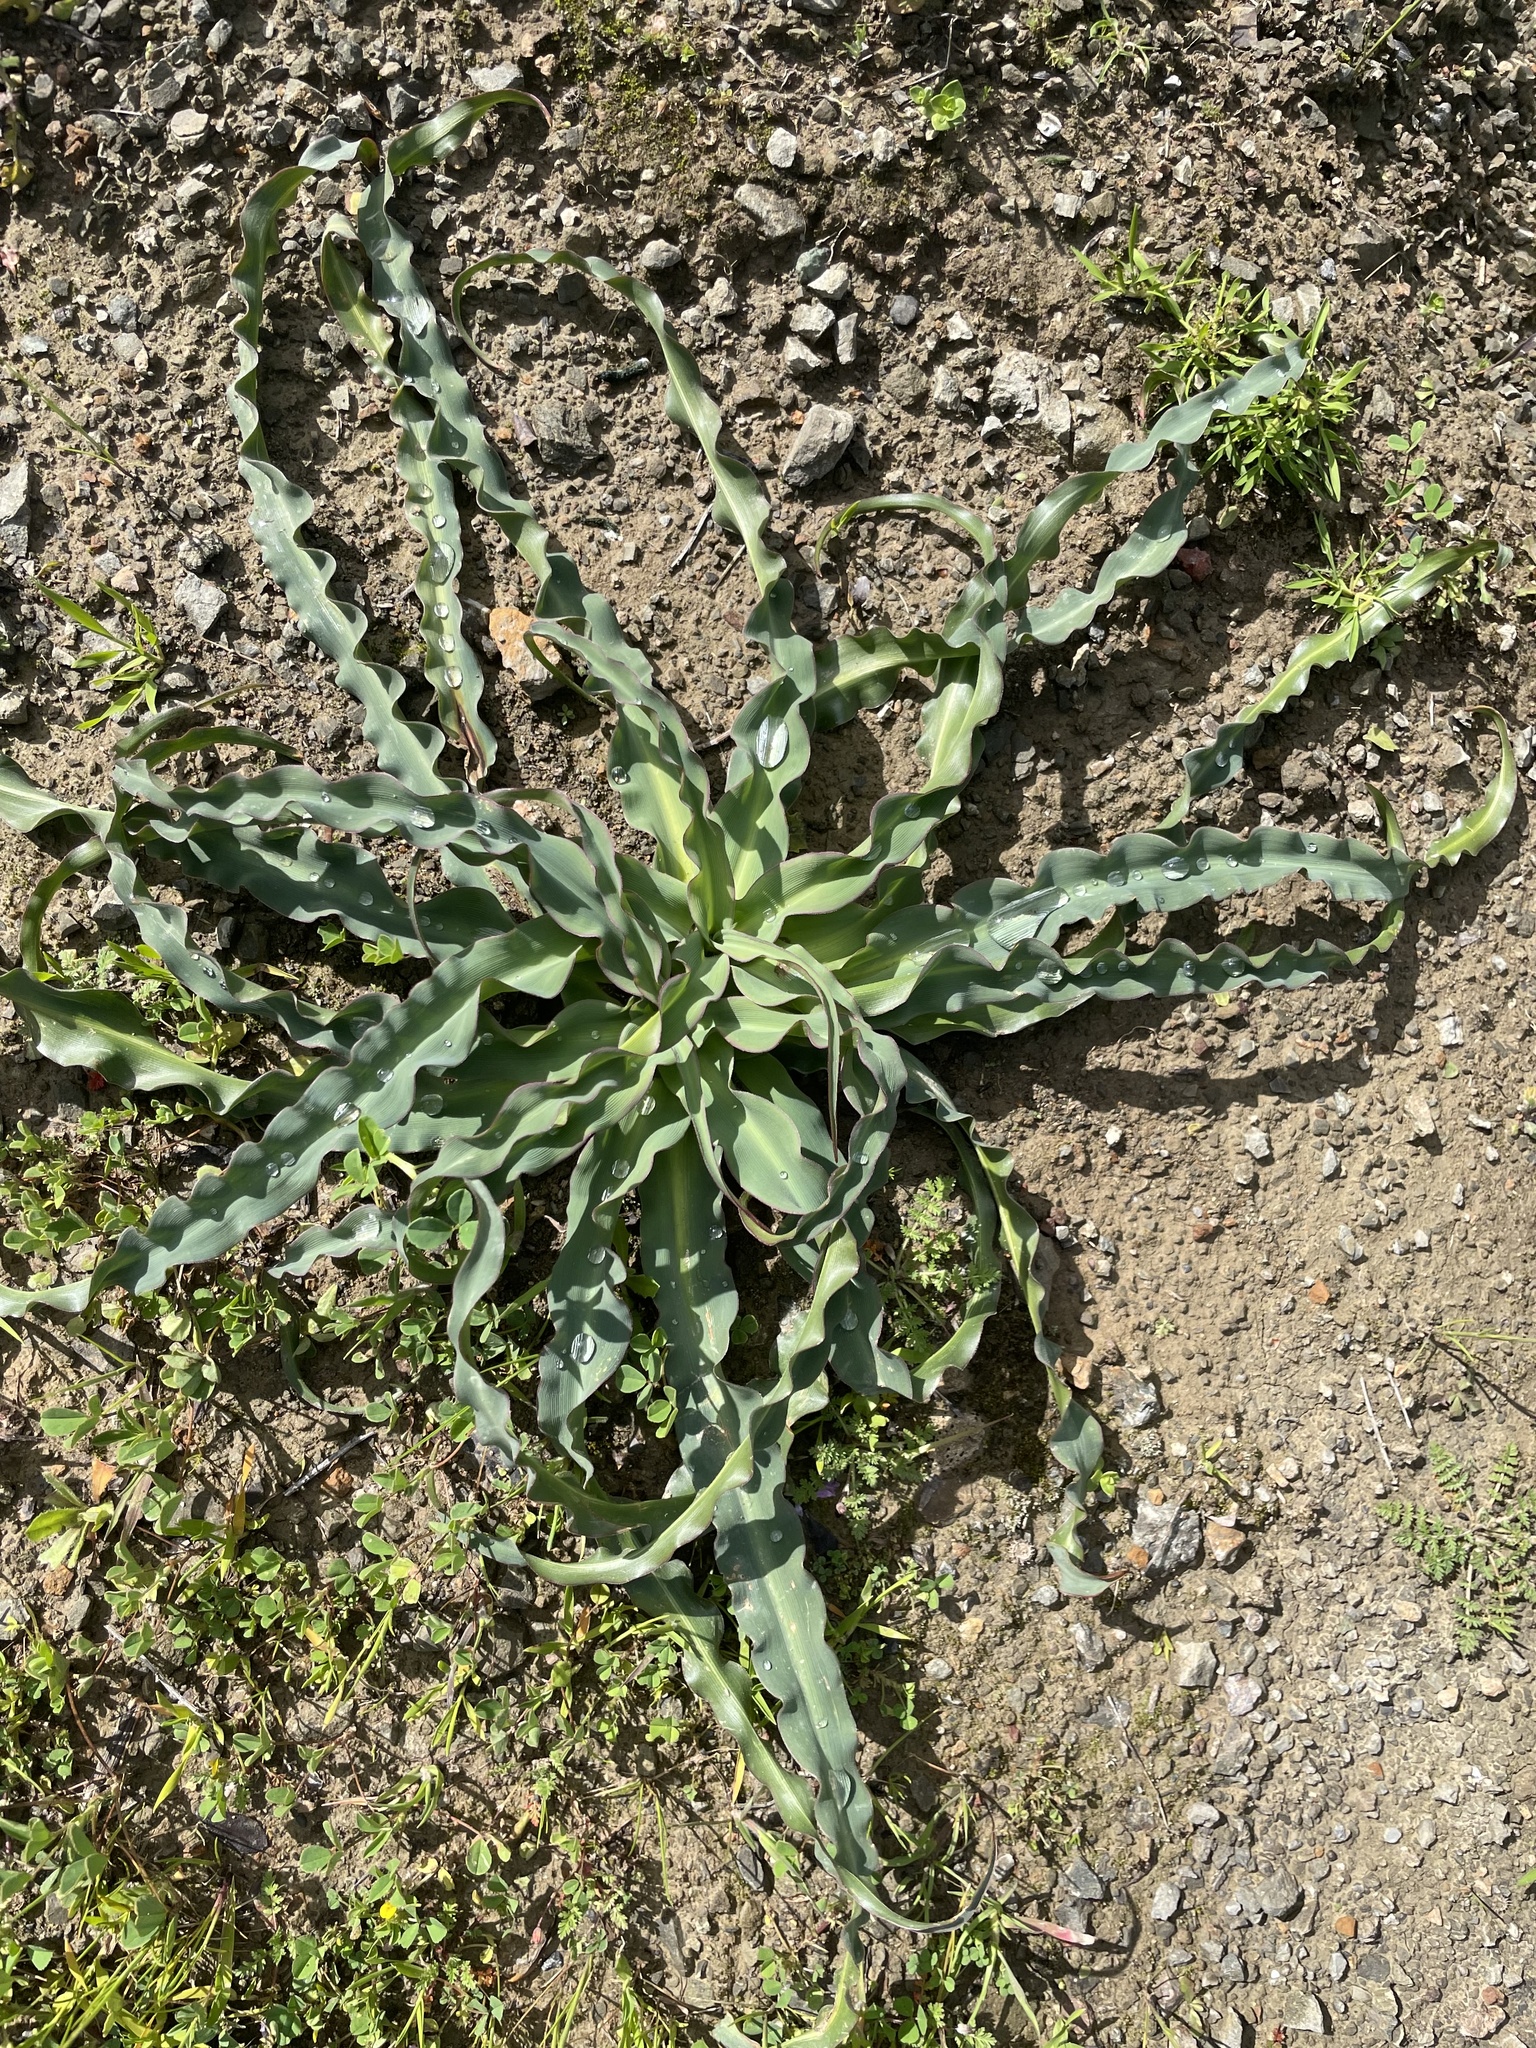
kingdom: Plantae
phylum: Tracheophyta
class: Liliopsida
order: Asparagales
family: Asparagaceae
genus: Chlorogalum
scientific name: Chlorogalum pomeridianum
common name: Amole
